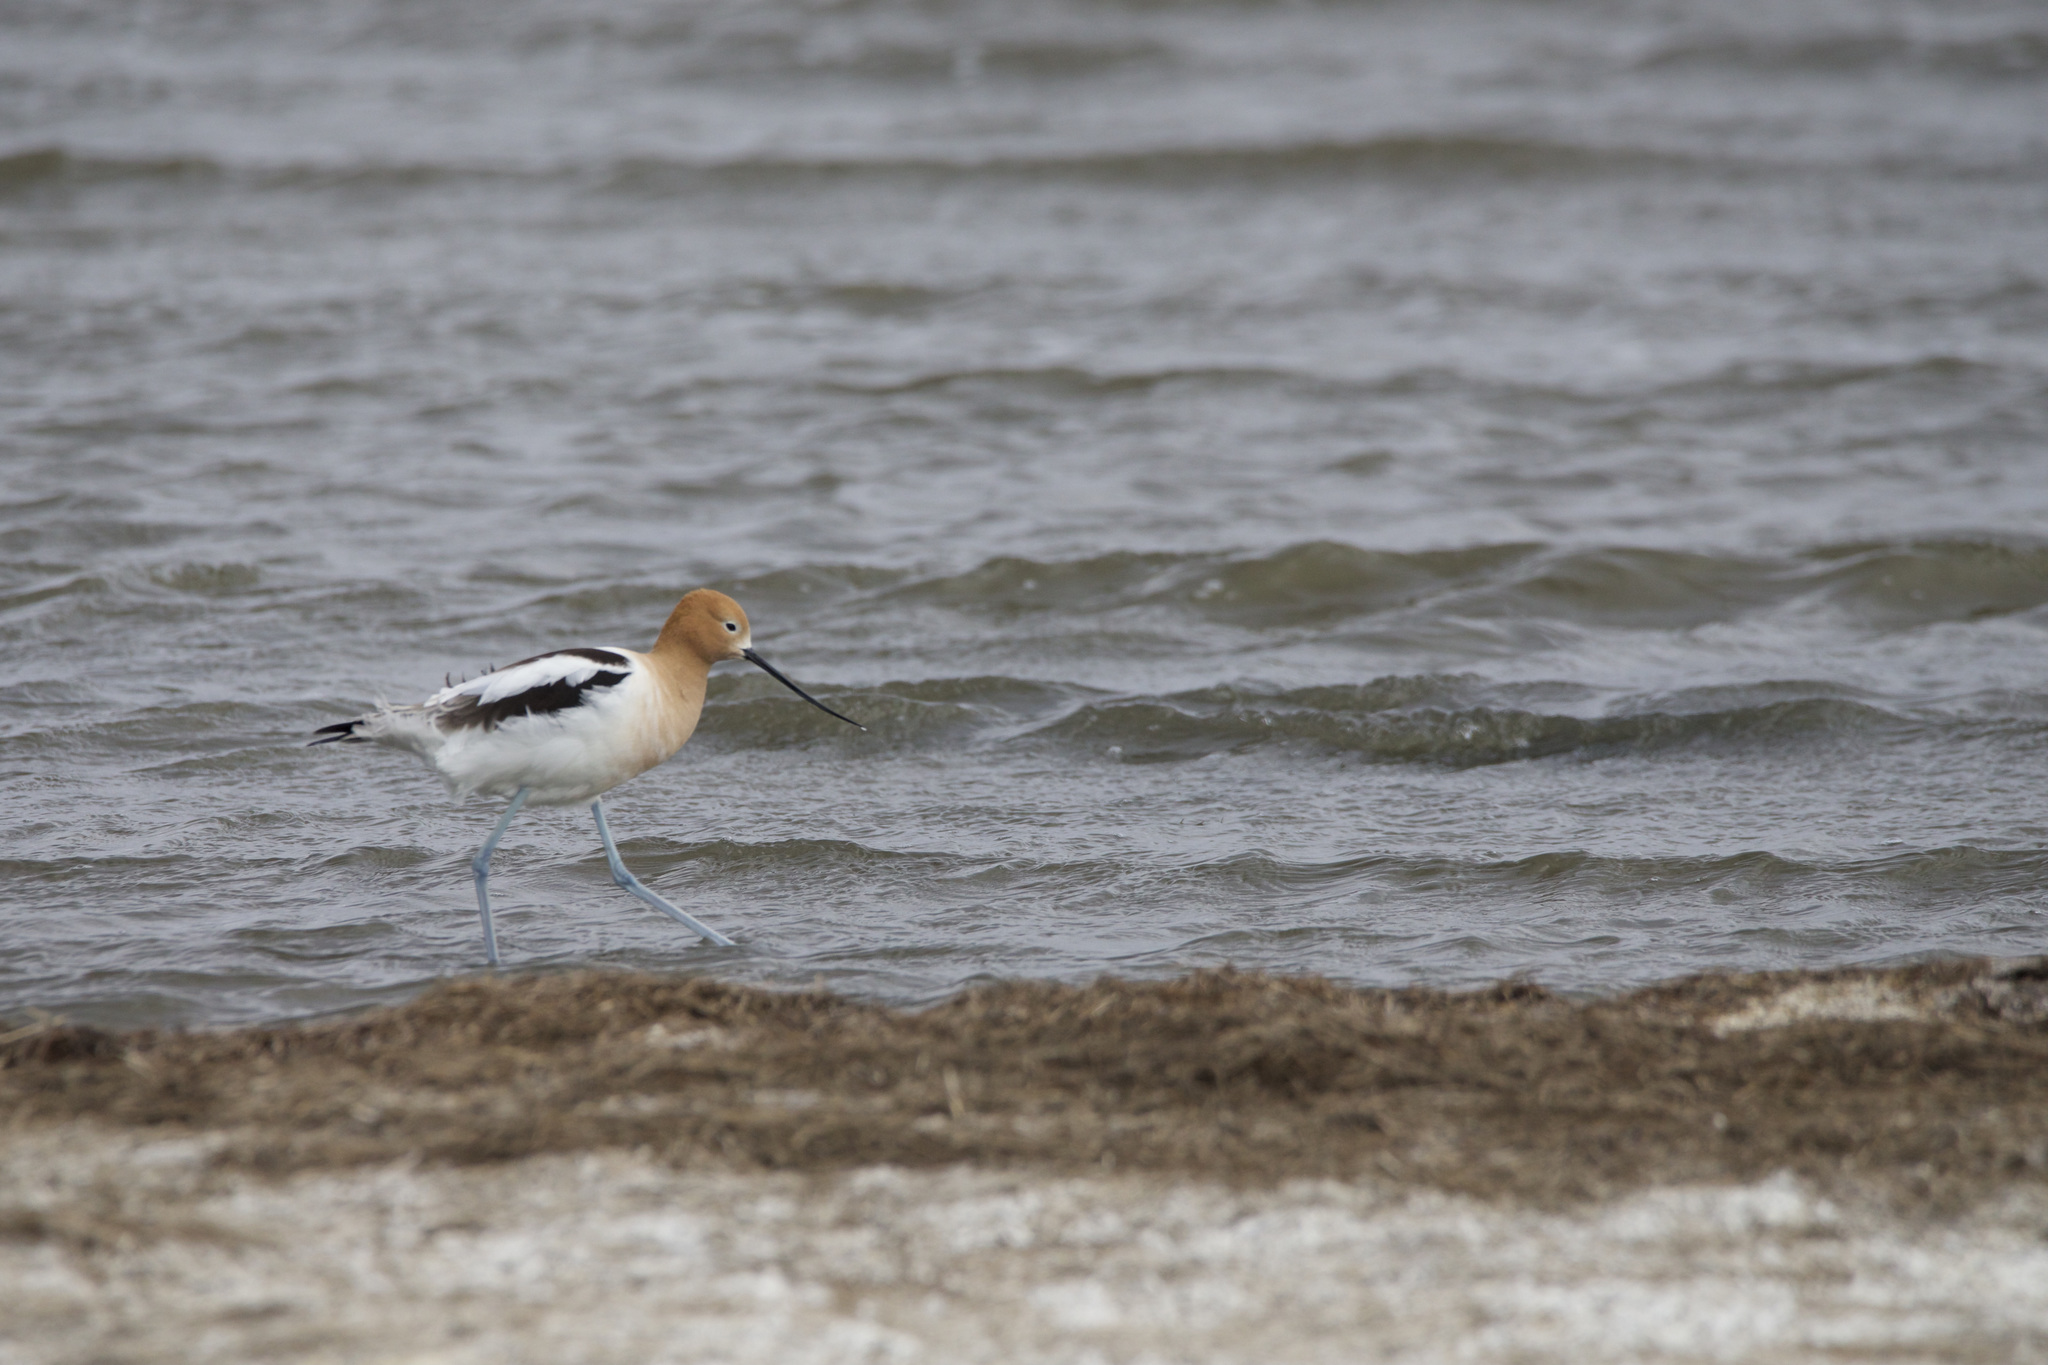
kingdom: Animalia
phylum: Chordata
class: Aves
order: Charadriiformes
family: Recurvirostridae
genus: Recurvirostra
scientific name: Recurvirostra americana
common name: American avocet
